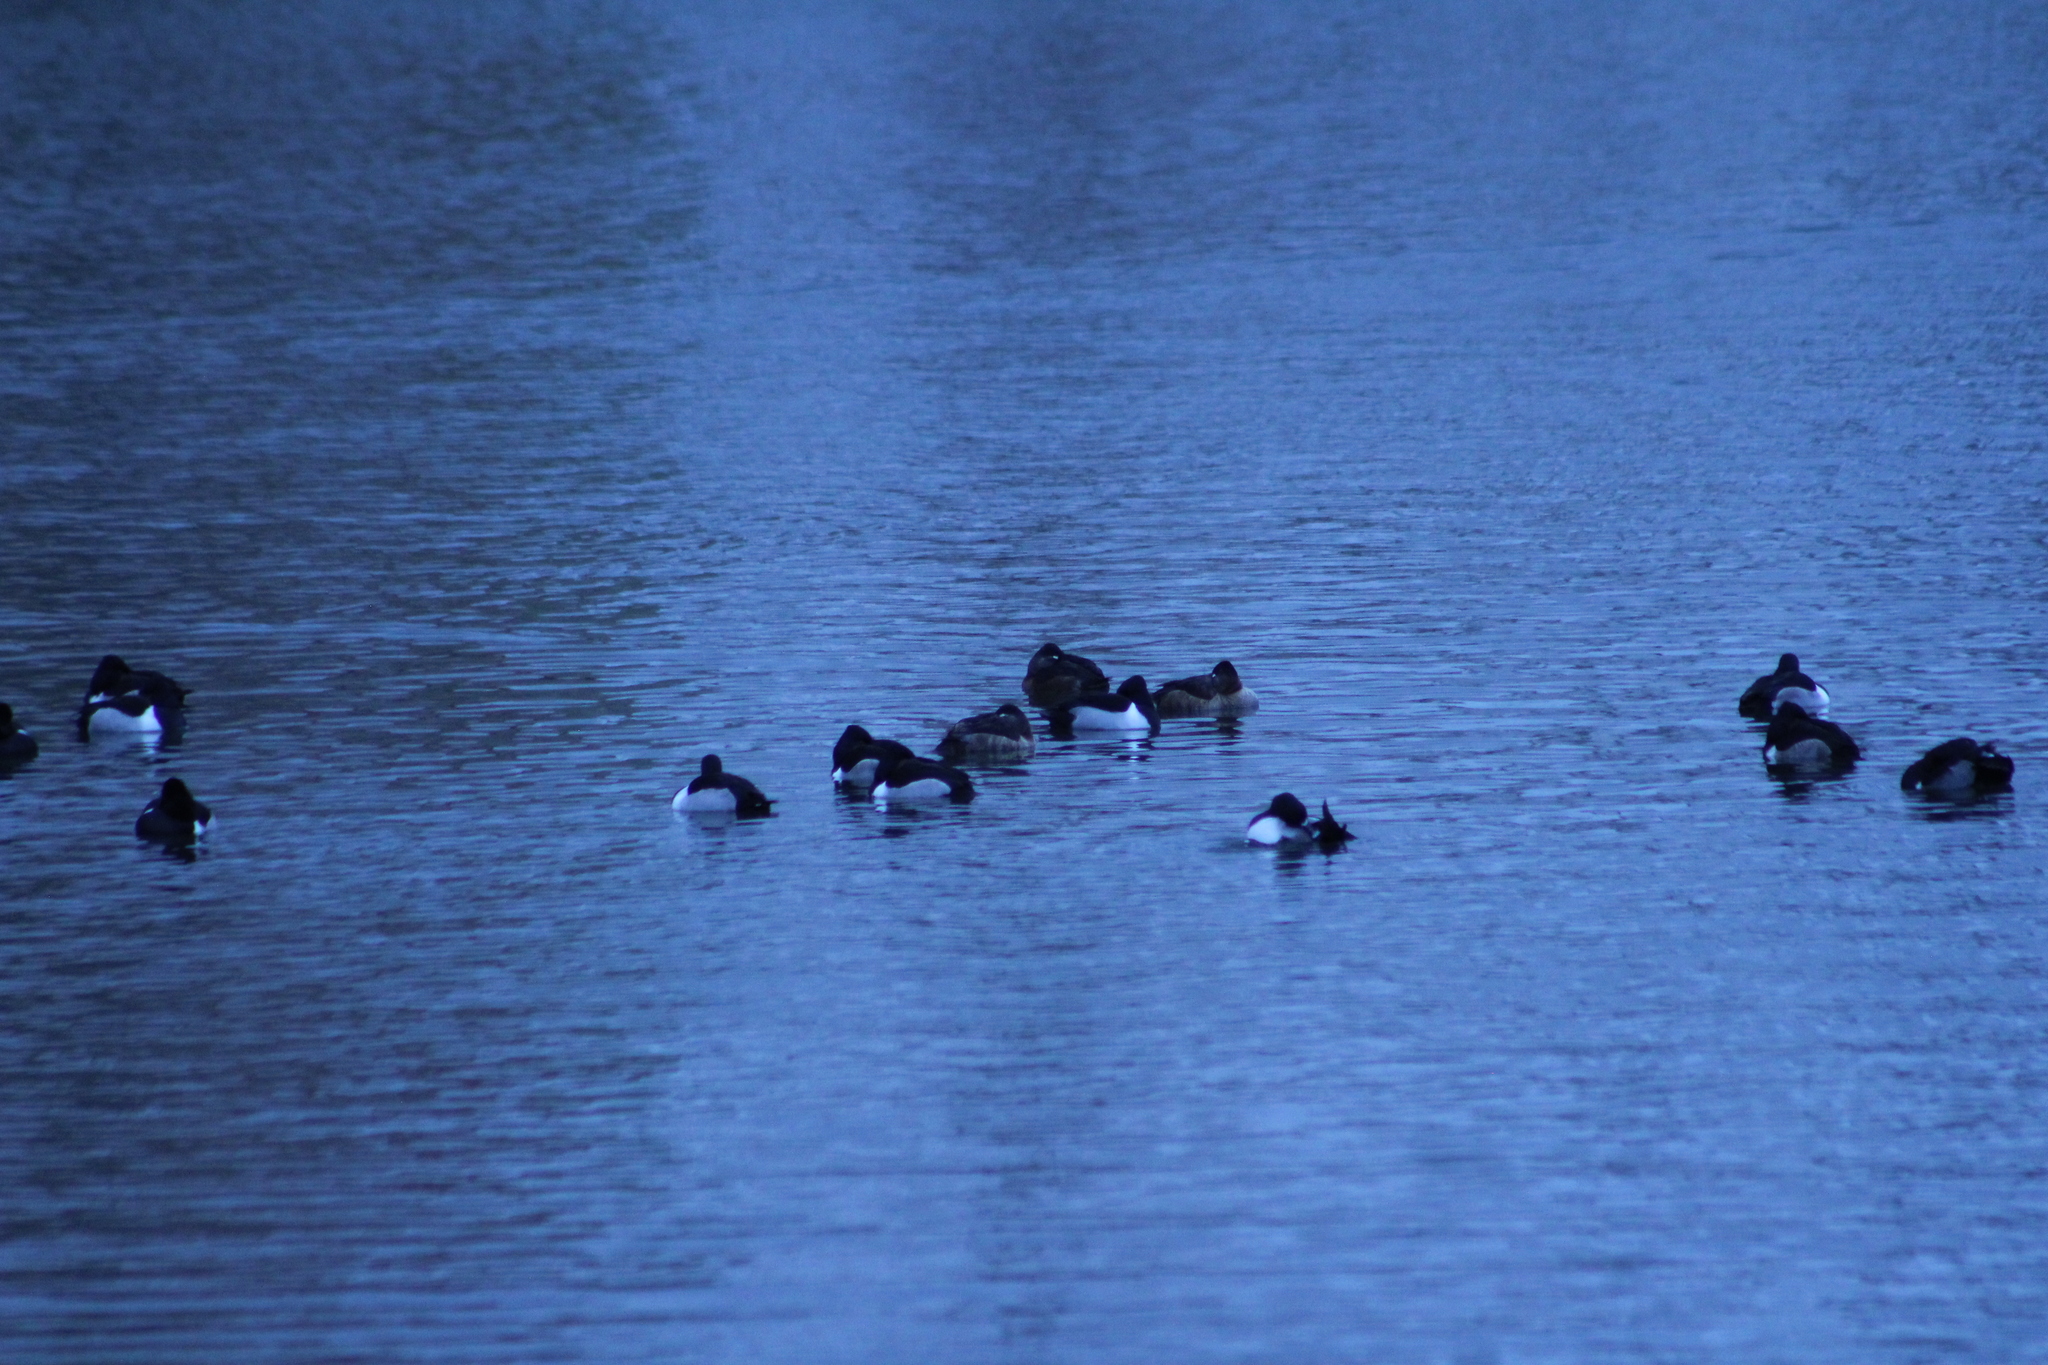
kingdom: Animalia
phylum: Chordata
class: Aves
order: Anseriformes
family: Anatidae
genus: Aythya
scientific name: Aythya collaris
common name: Ring-necked duck
